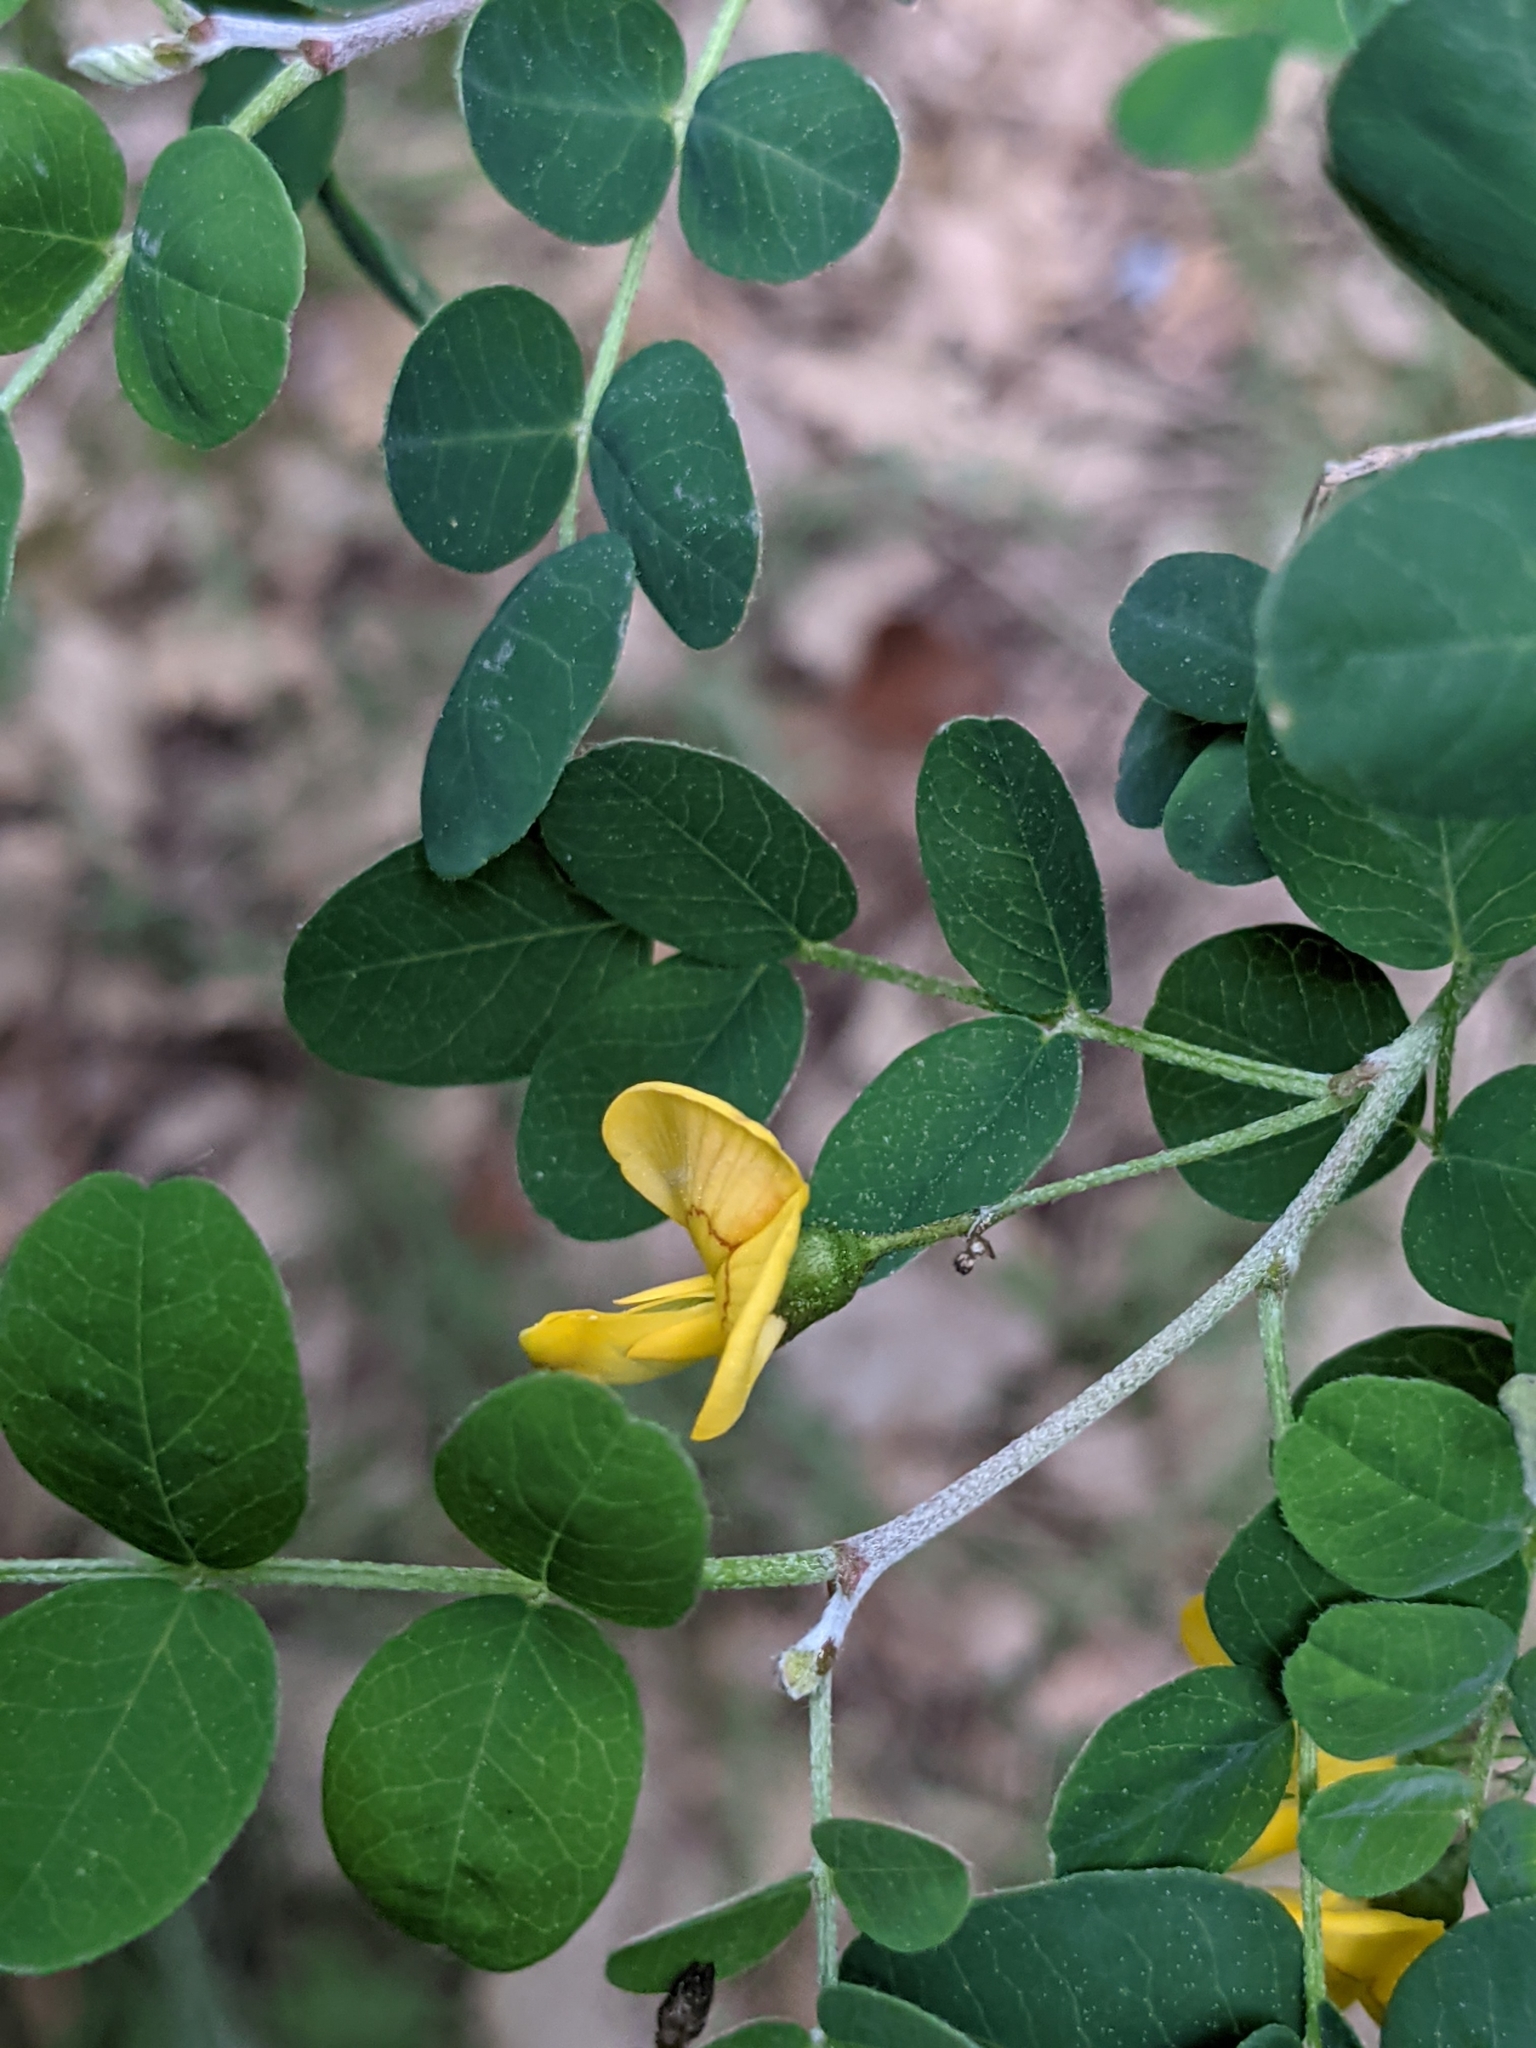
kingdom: Plantae
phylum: Tracheophyta
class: Magnoliopsida
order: Fabales
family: Fabaceae
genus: Colutea
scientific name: Colutea arborescens
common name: Bladder-senna
